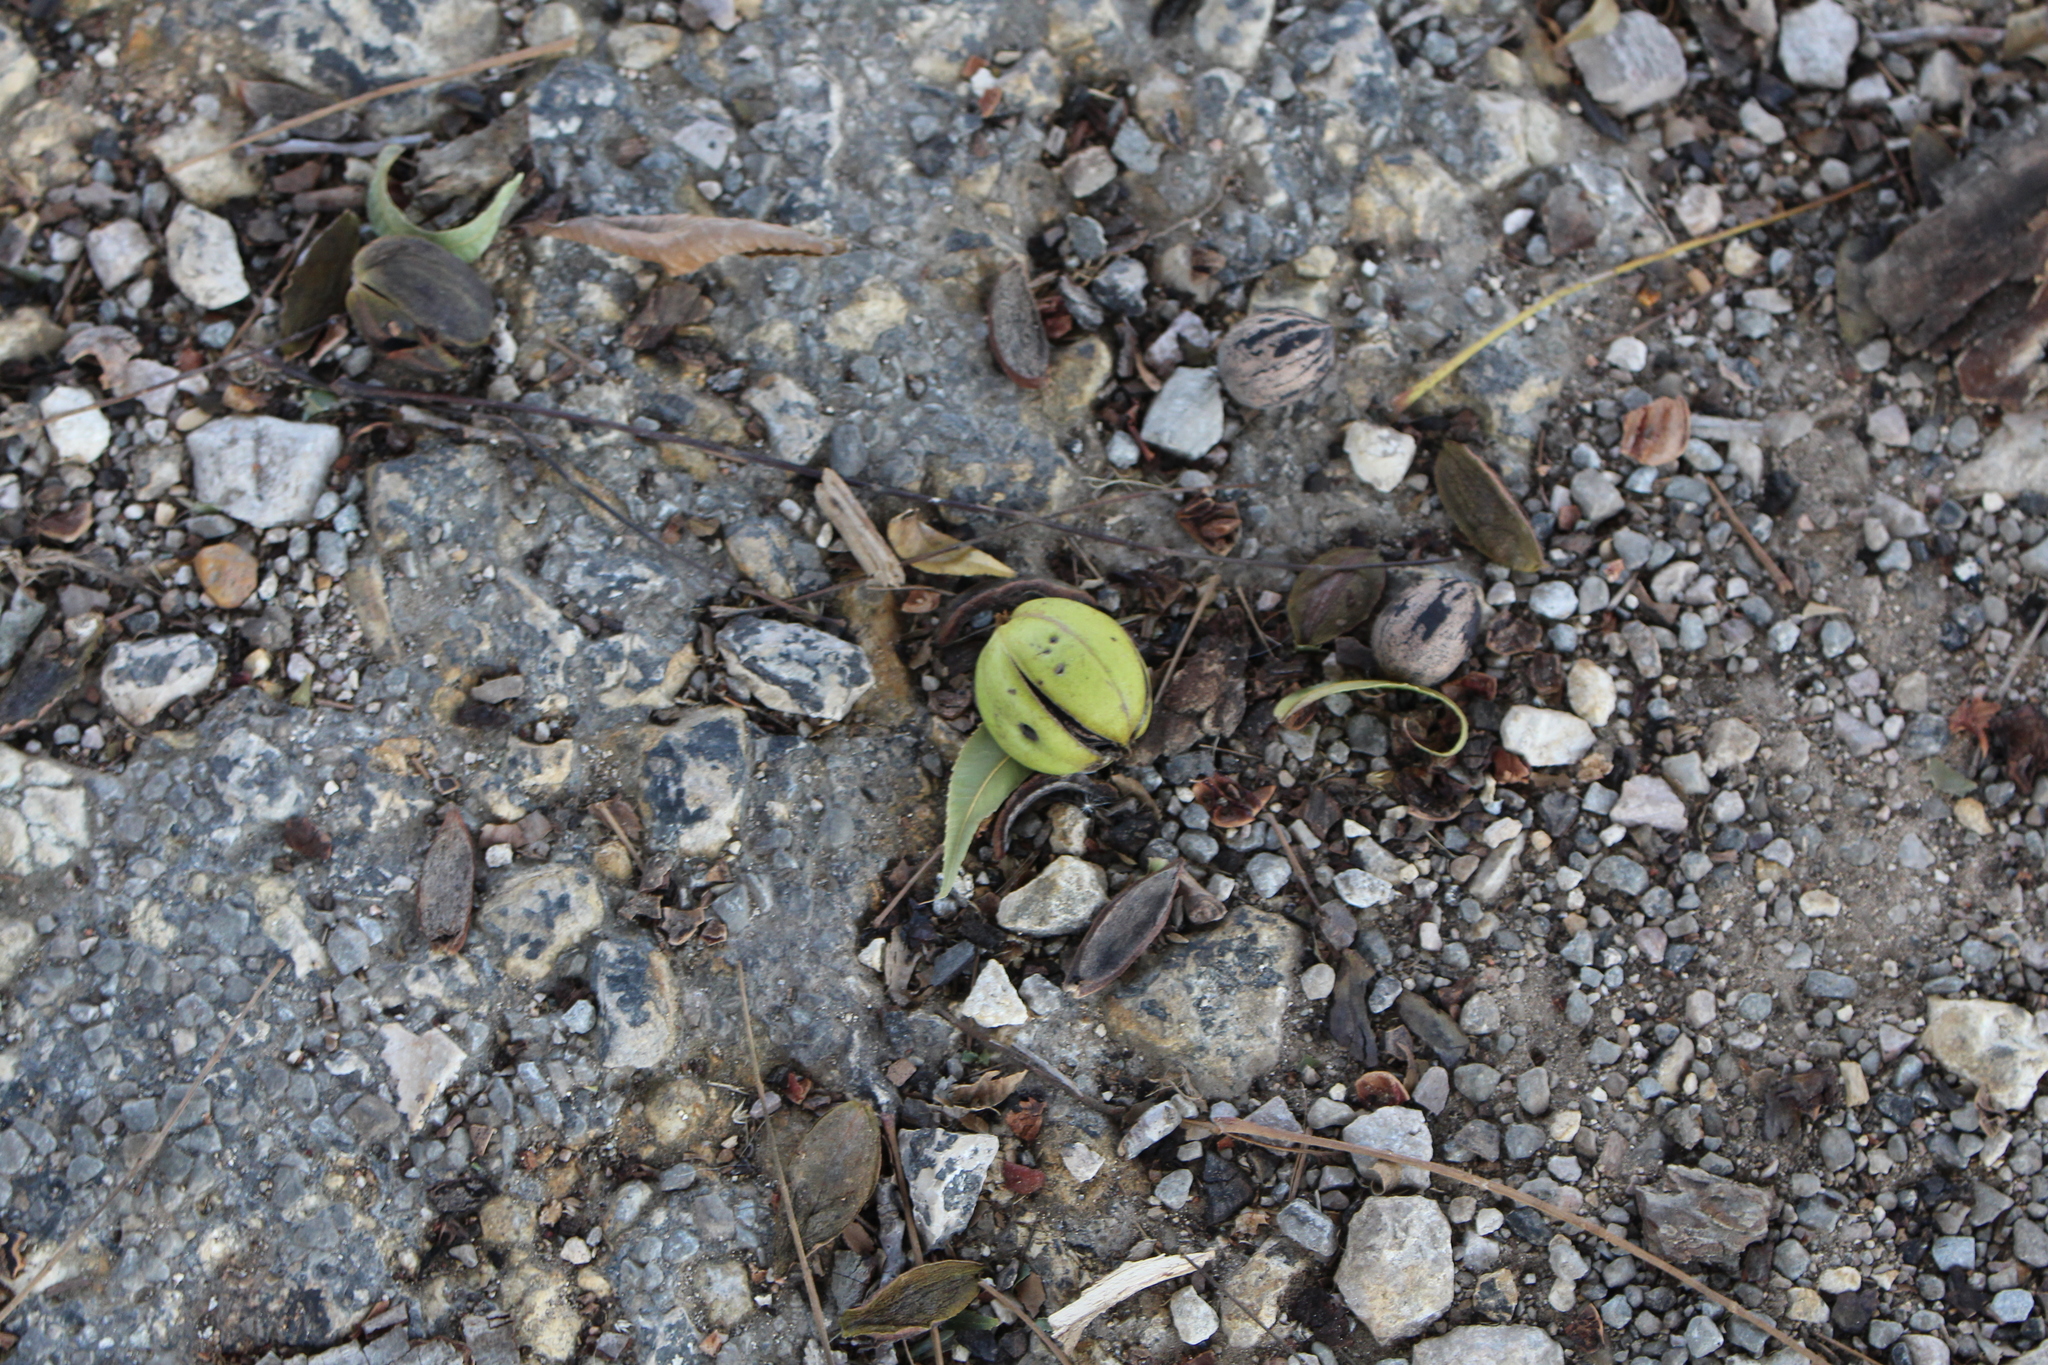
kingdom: Plantae
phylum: Tracheophyta
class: Magnoliopsida
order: Fagales
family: Juglandaceae
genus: Carya
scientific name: Carya illinoinensis
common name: Pecan
